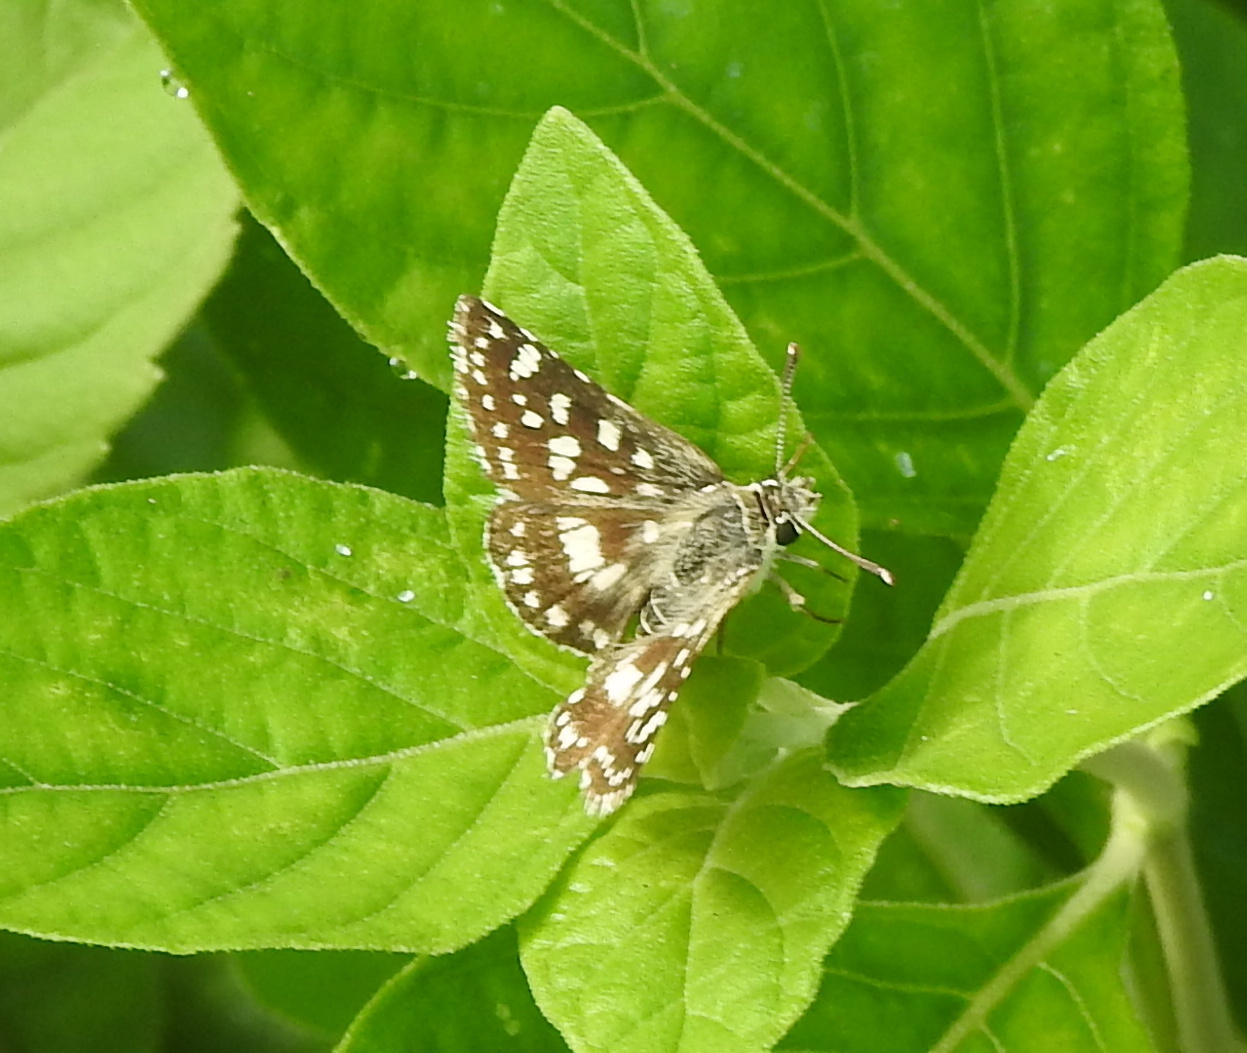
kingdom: Animalia
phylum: Arthropoda
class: Insecta
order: Lepidoptera
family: Hesperiidae
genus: Spialia
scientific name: Spialia galba
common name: Indian skipper
